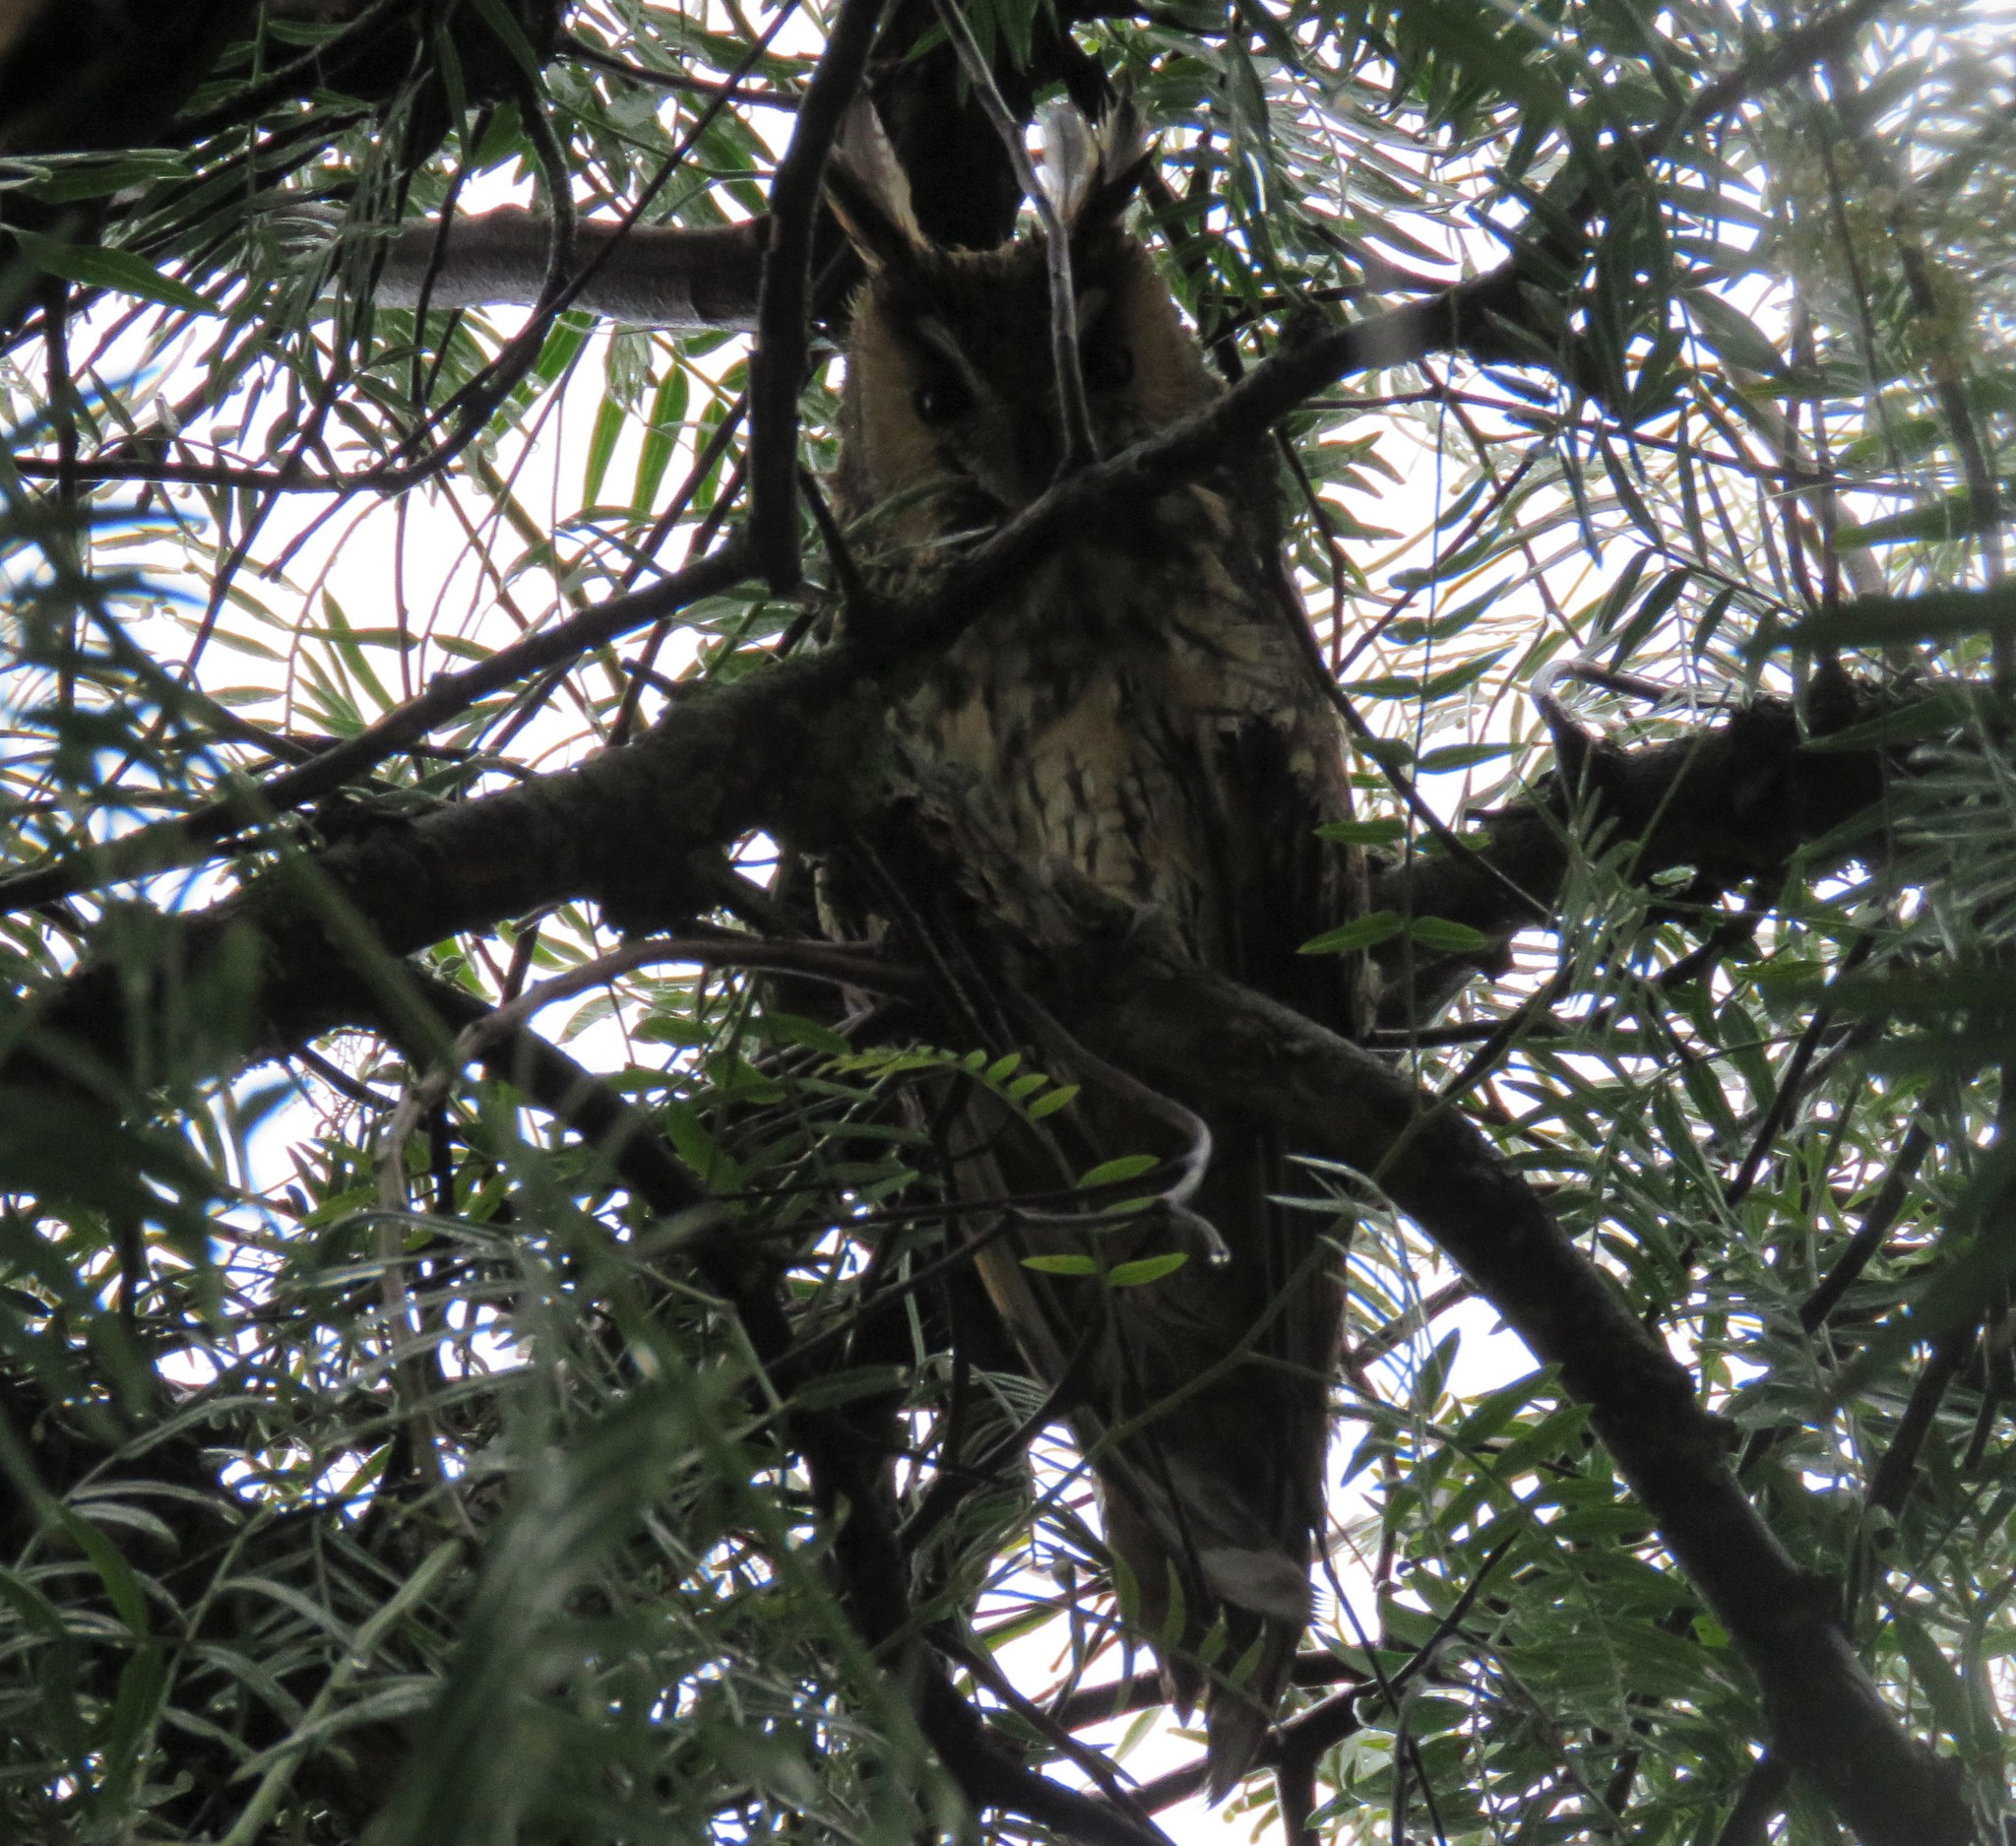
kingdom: Animalia
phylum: Chordata
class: Aves
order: Strigiformes
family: Strigidae
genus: Asio
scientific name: Asio otus
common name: Long-eared owl
